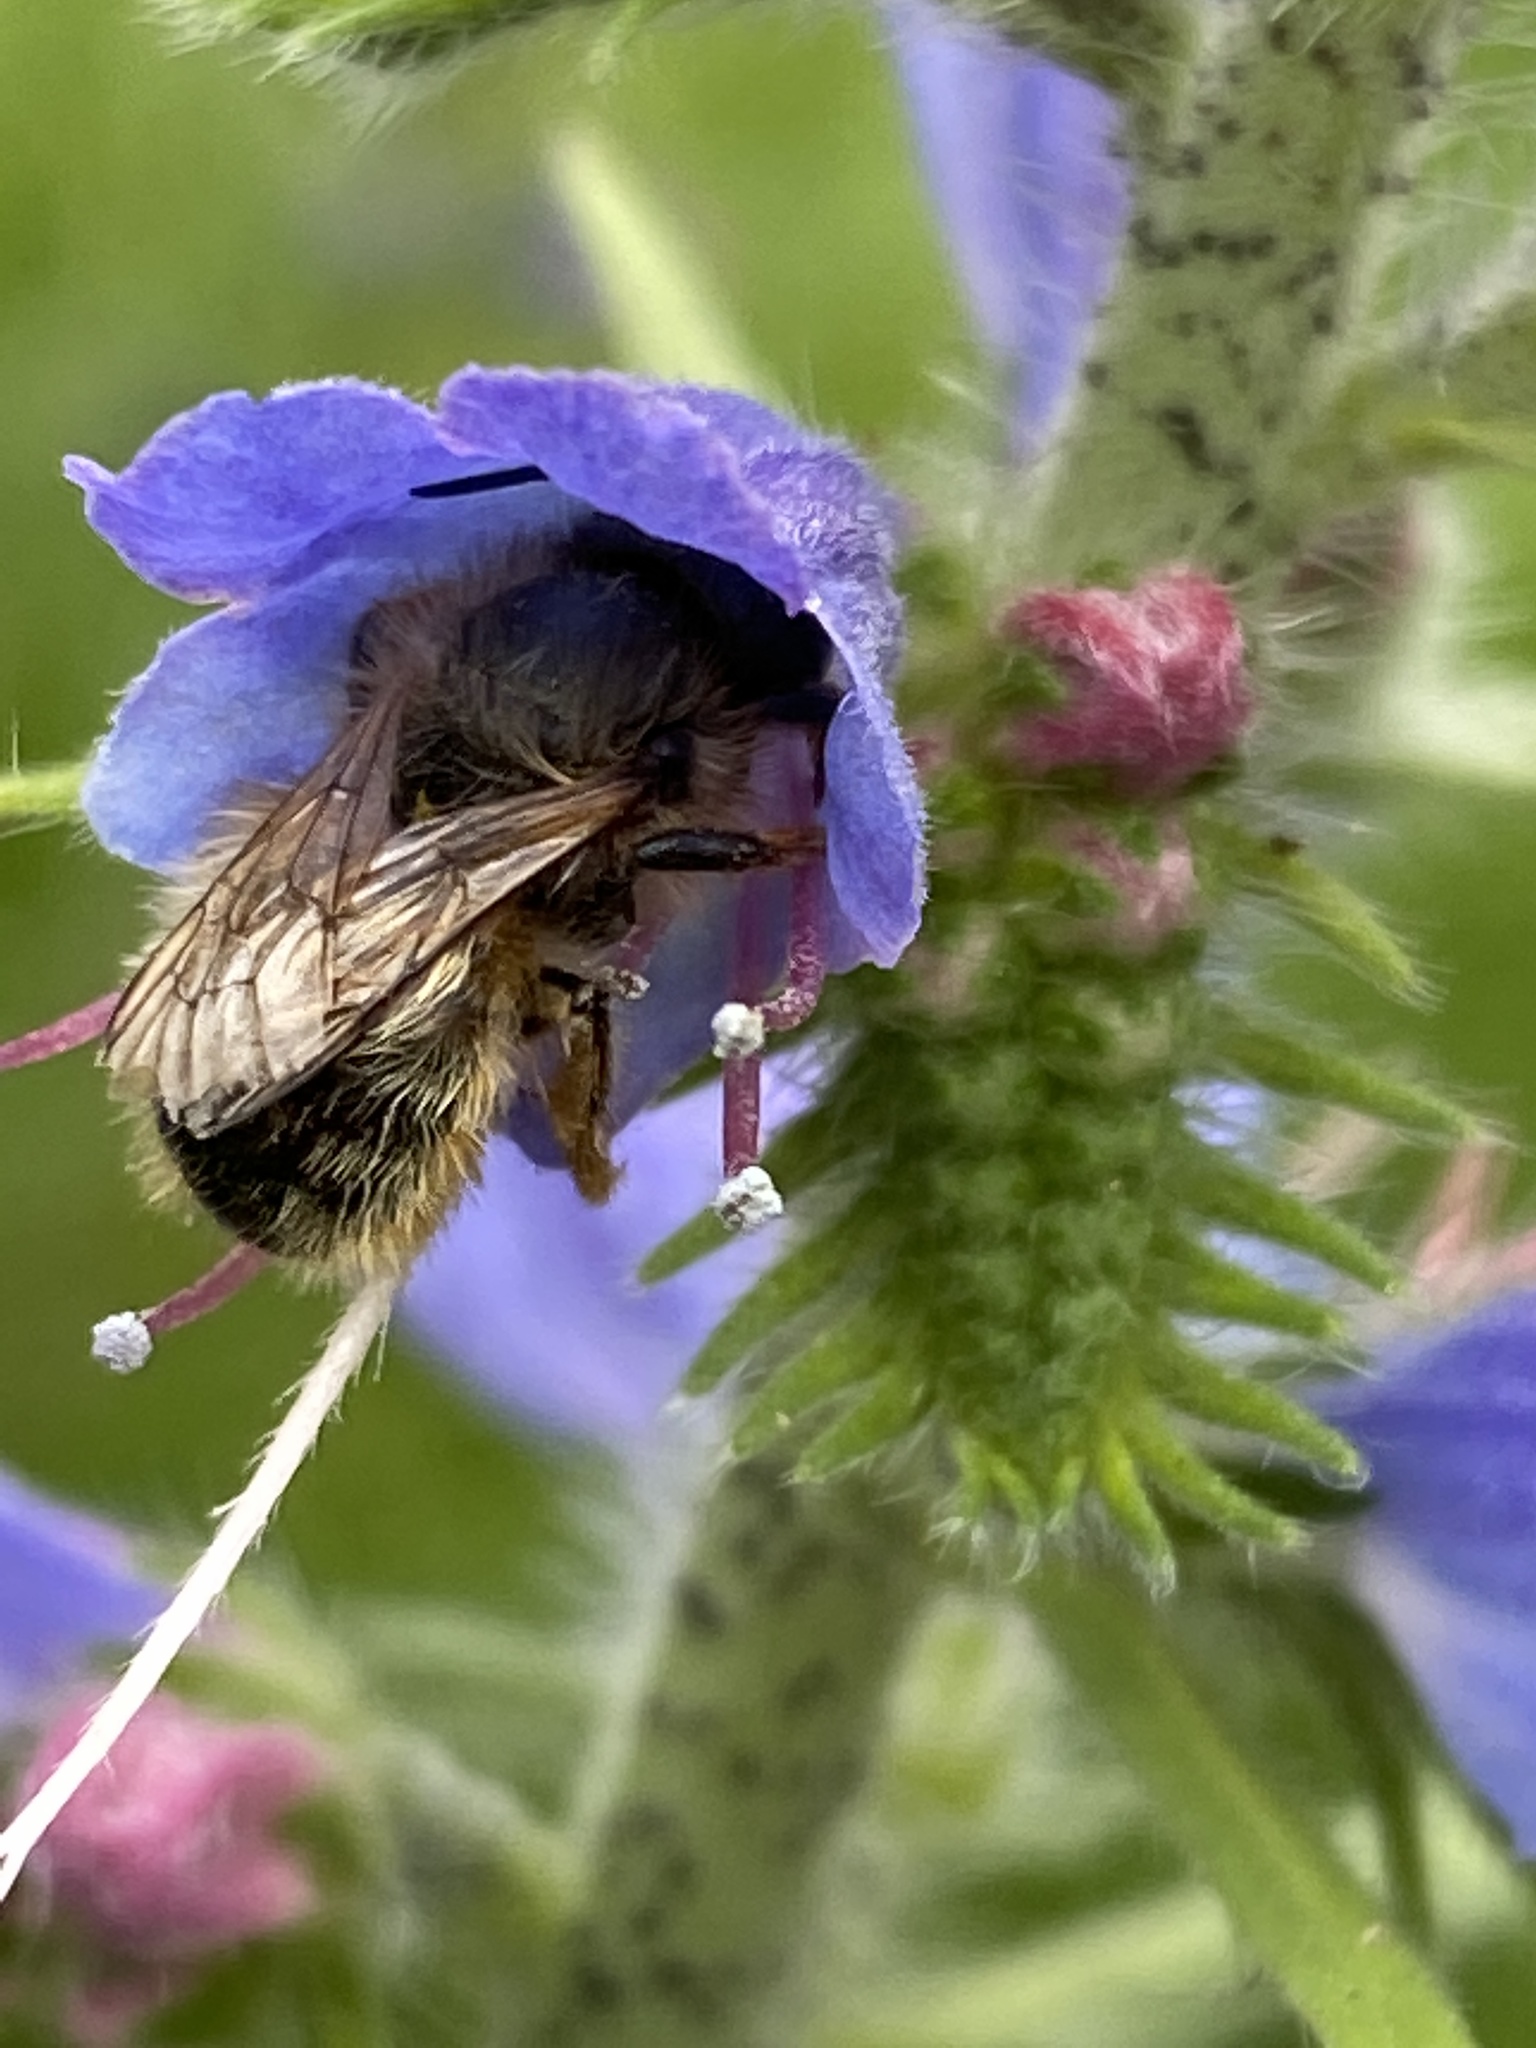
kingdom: Animalia
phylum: Arthropoda
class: Insecta
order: Hymenoptera
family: Megachilidae
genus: Osmia
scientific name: Osmia bicornis
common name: Red mason bee
